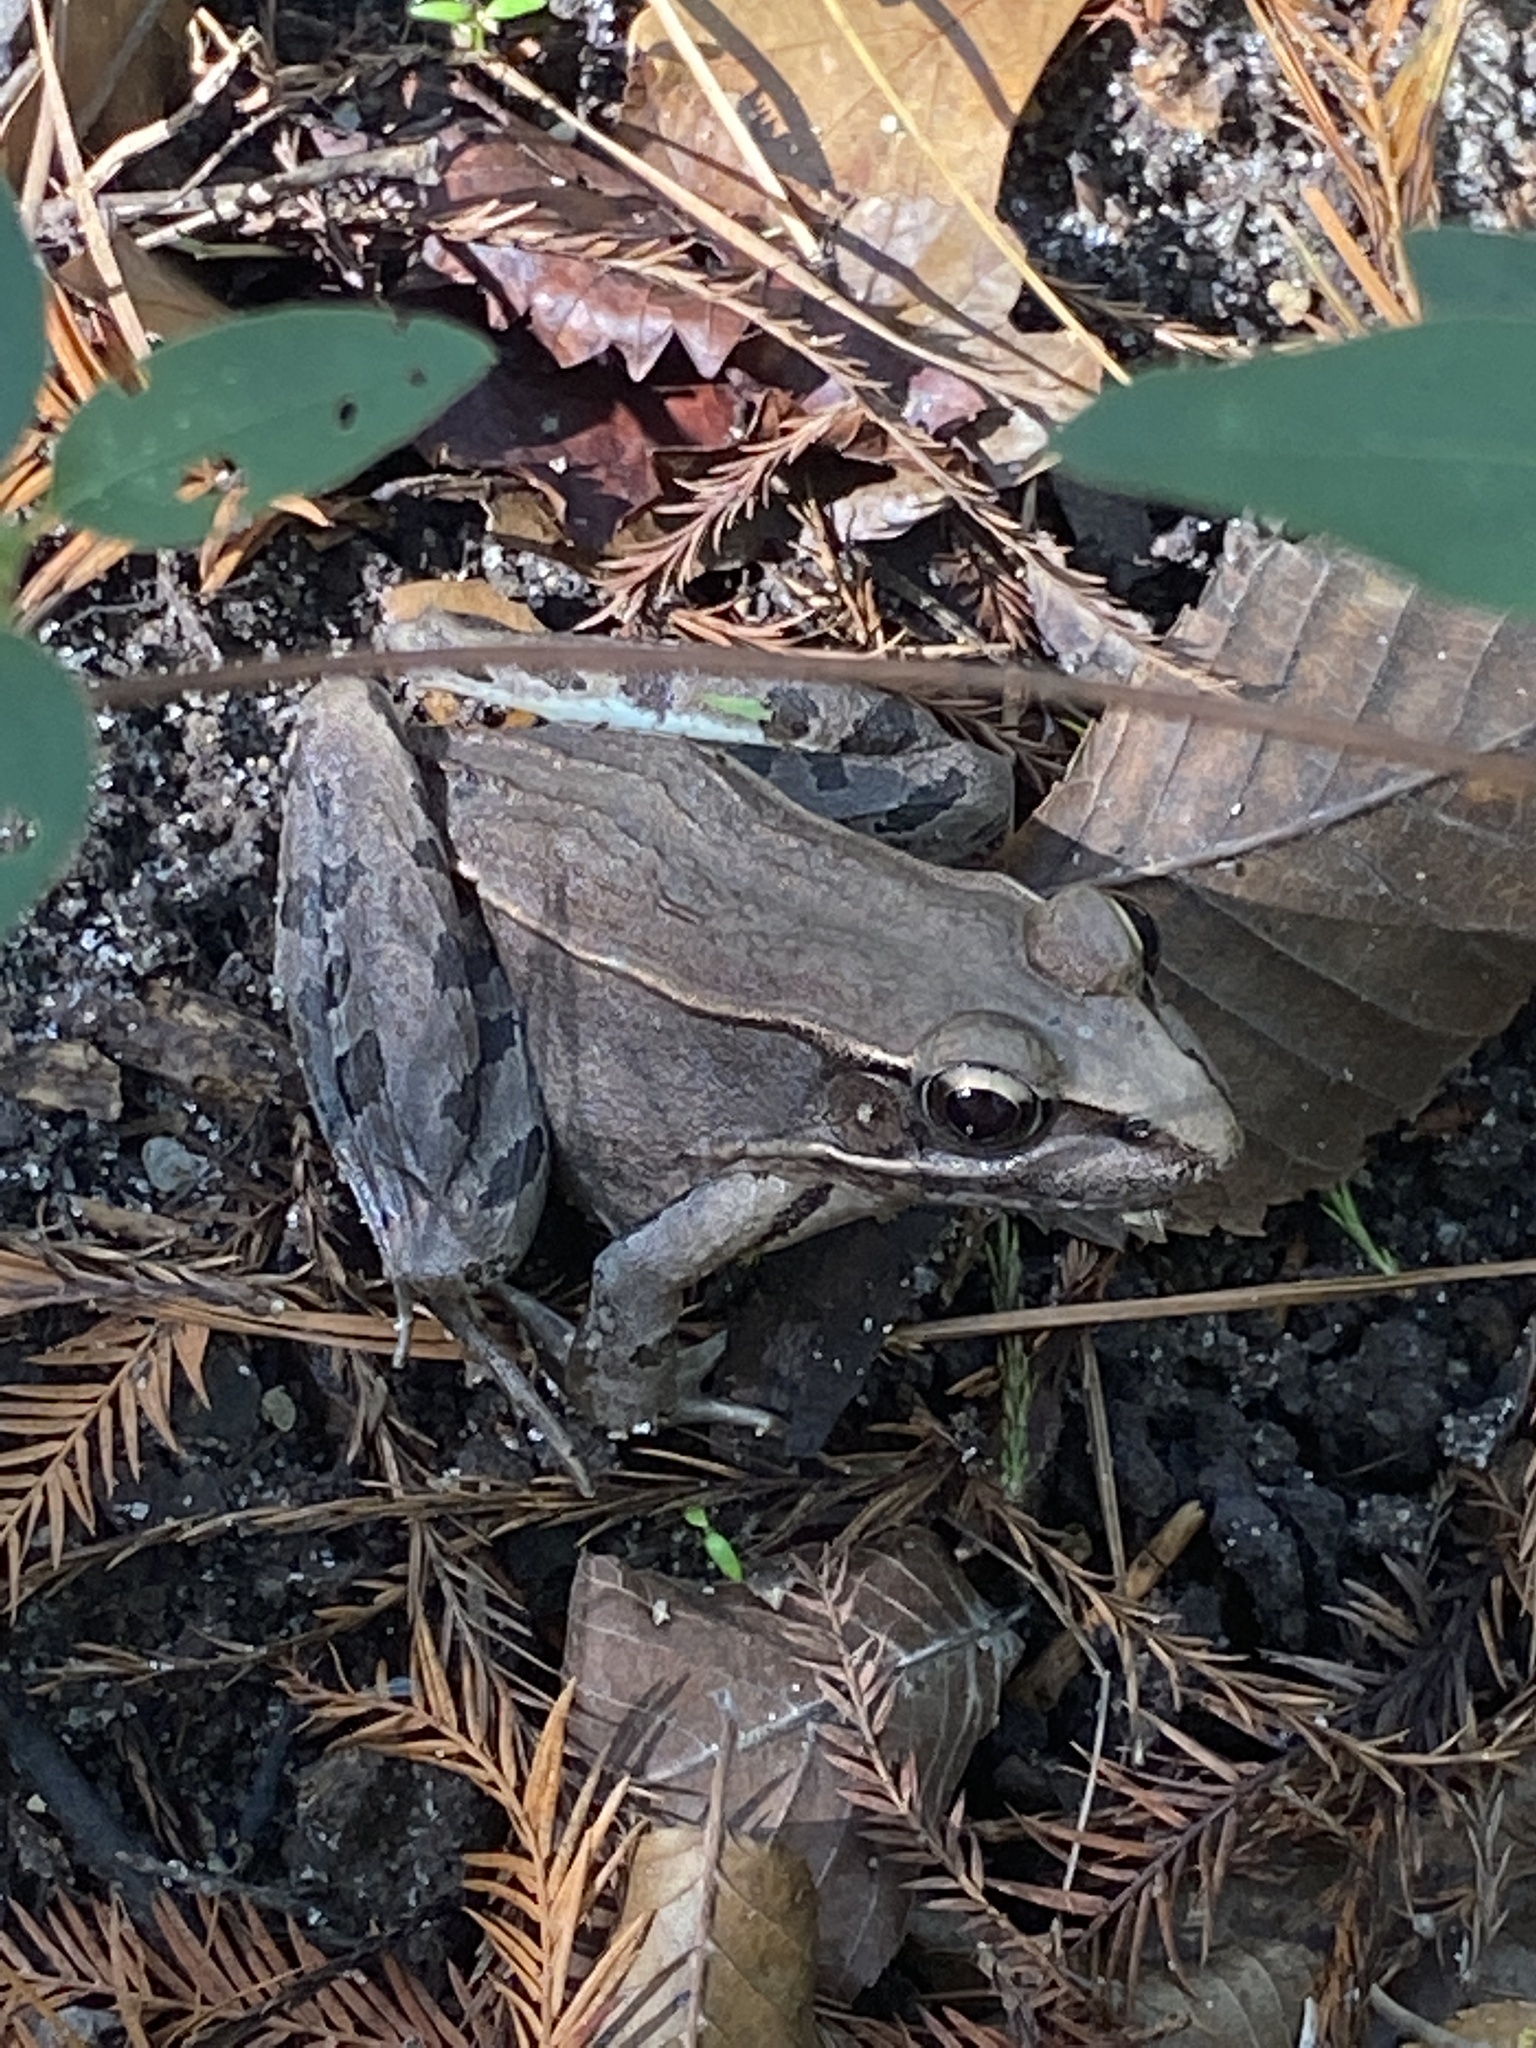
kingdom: Animalia
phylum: Chordata
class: Amphibia
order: Anura
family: Ranidae
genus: Lithobates
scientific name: Lithobates clamitans
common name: Green frog
